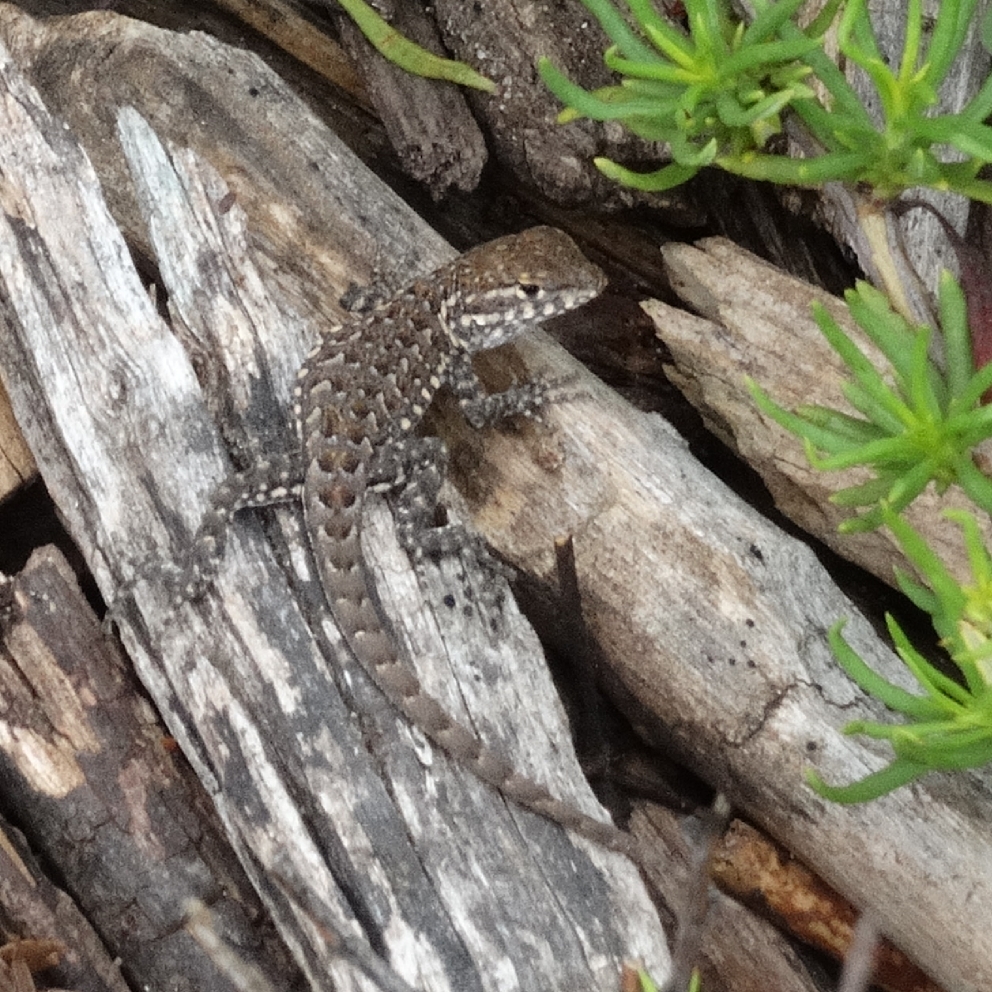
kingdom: Animalia
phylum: Chordata
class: Squamata
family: Phrynosomatidae
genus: Uta
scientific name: Uta stansburiana
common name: Side-blotched lizard
